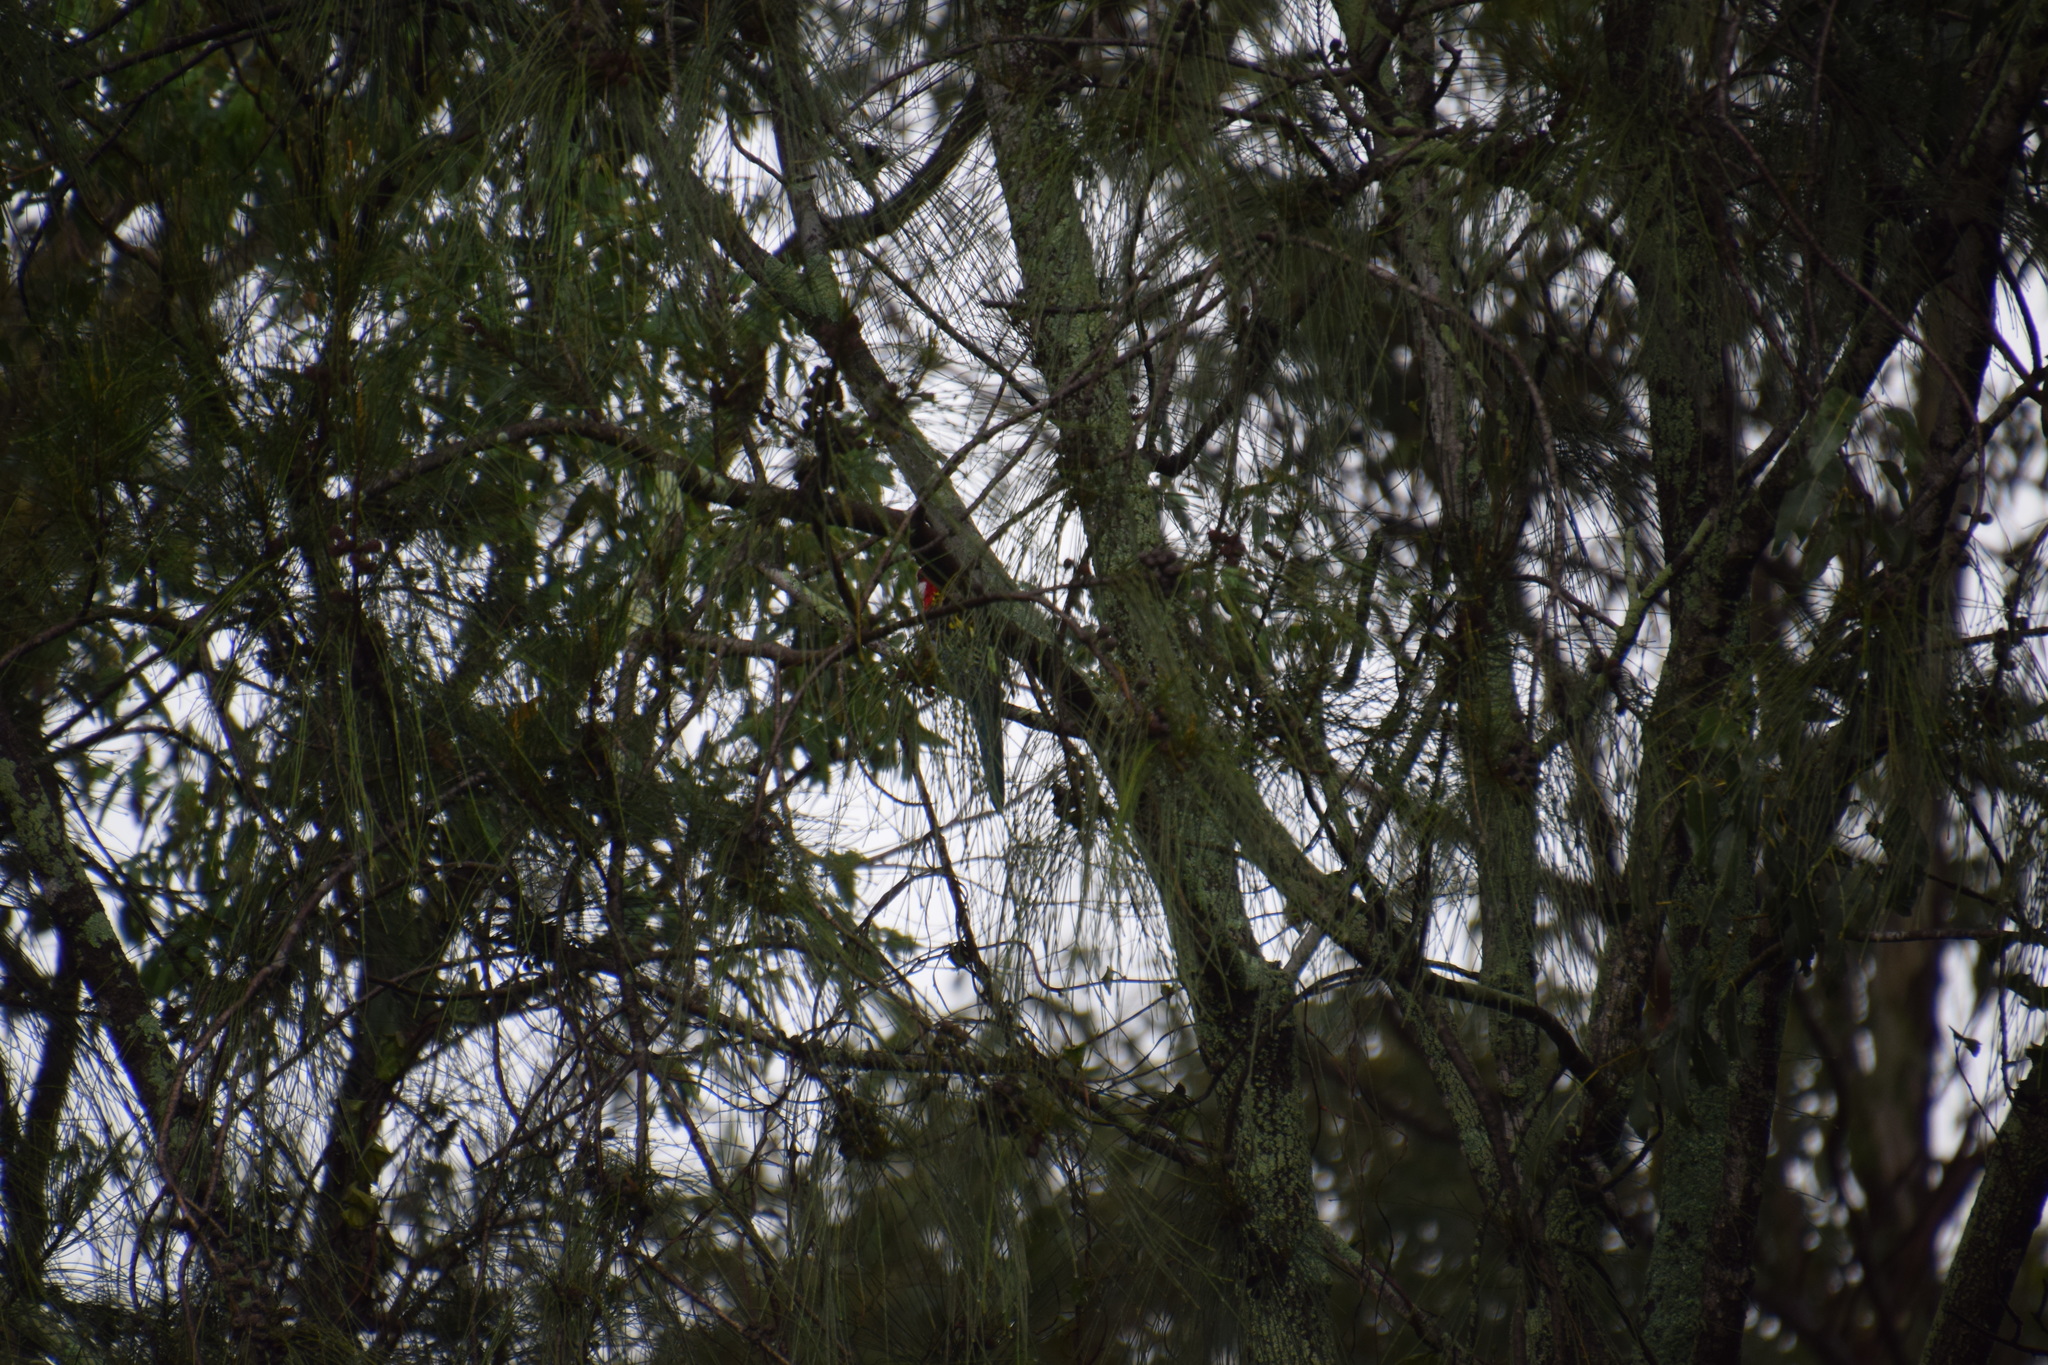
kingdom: Animalia
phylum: Chordata
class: Aves
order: Psittaciformes
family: Psittacidae
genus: Platycercus
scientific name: Platycercus eximius
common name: Eastern rosella
